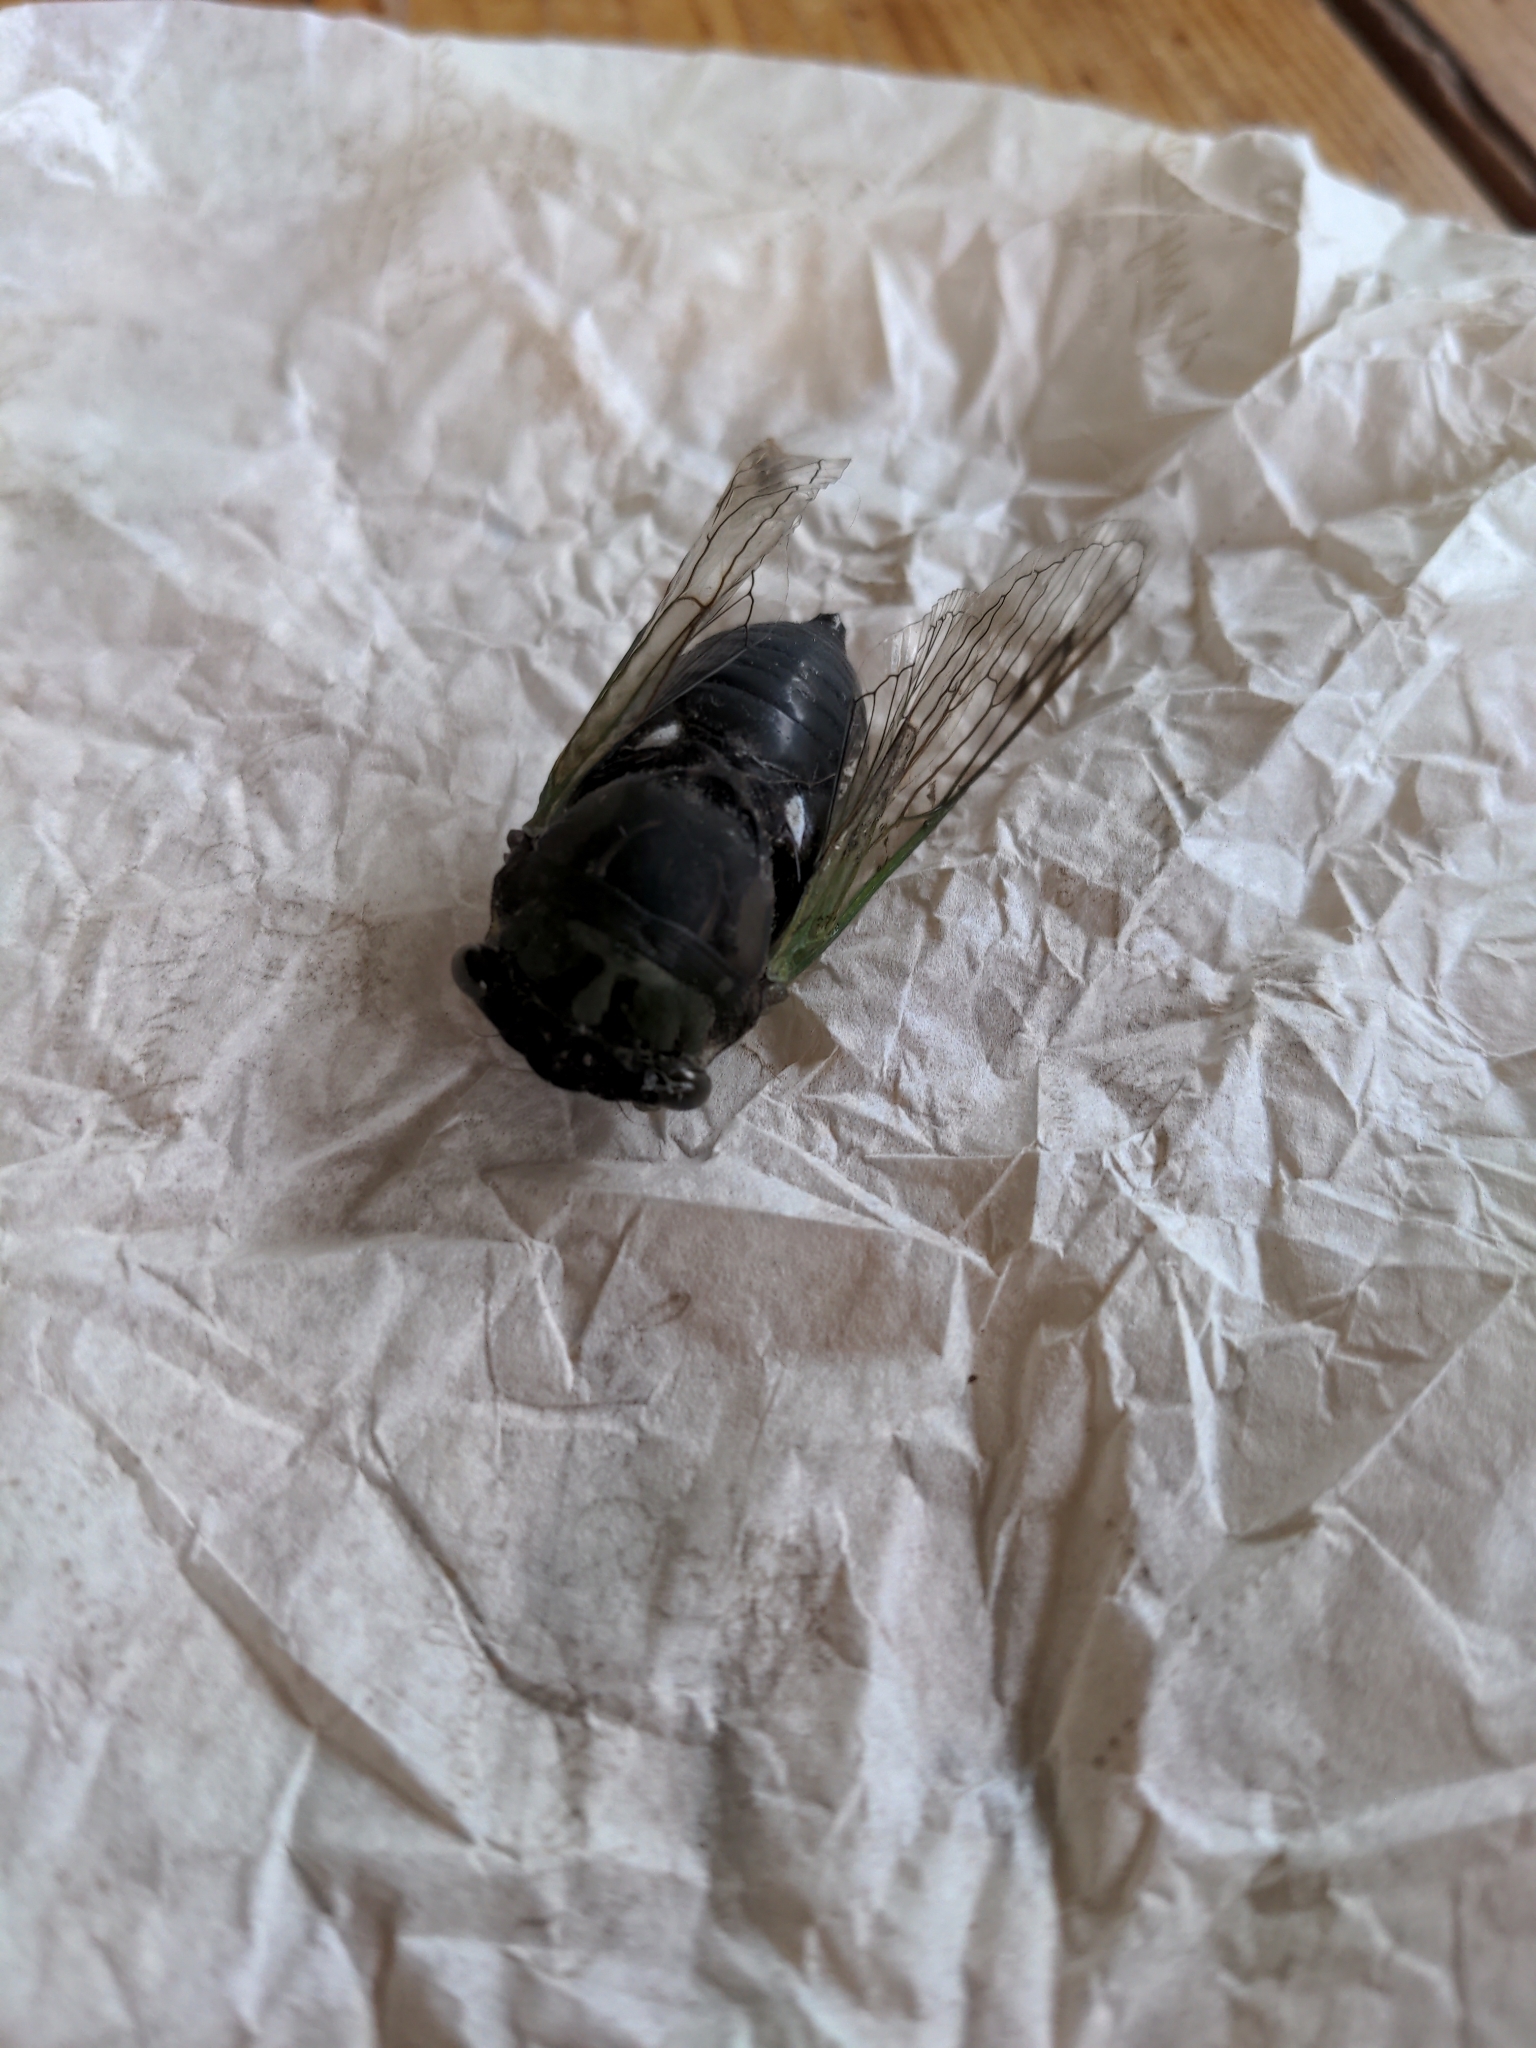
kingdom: Animalia
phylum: Arthropoda
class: Insecta
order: Hemiptera
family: Cicadidae
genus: Neotibicen
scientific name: Neotibicen tibicen
